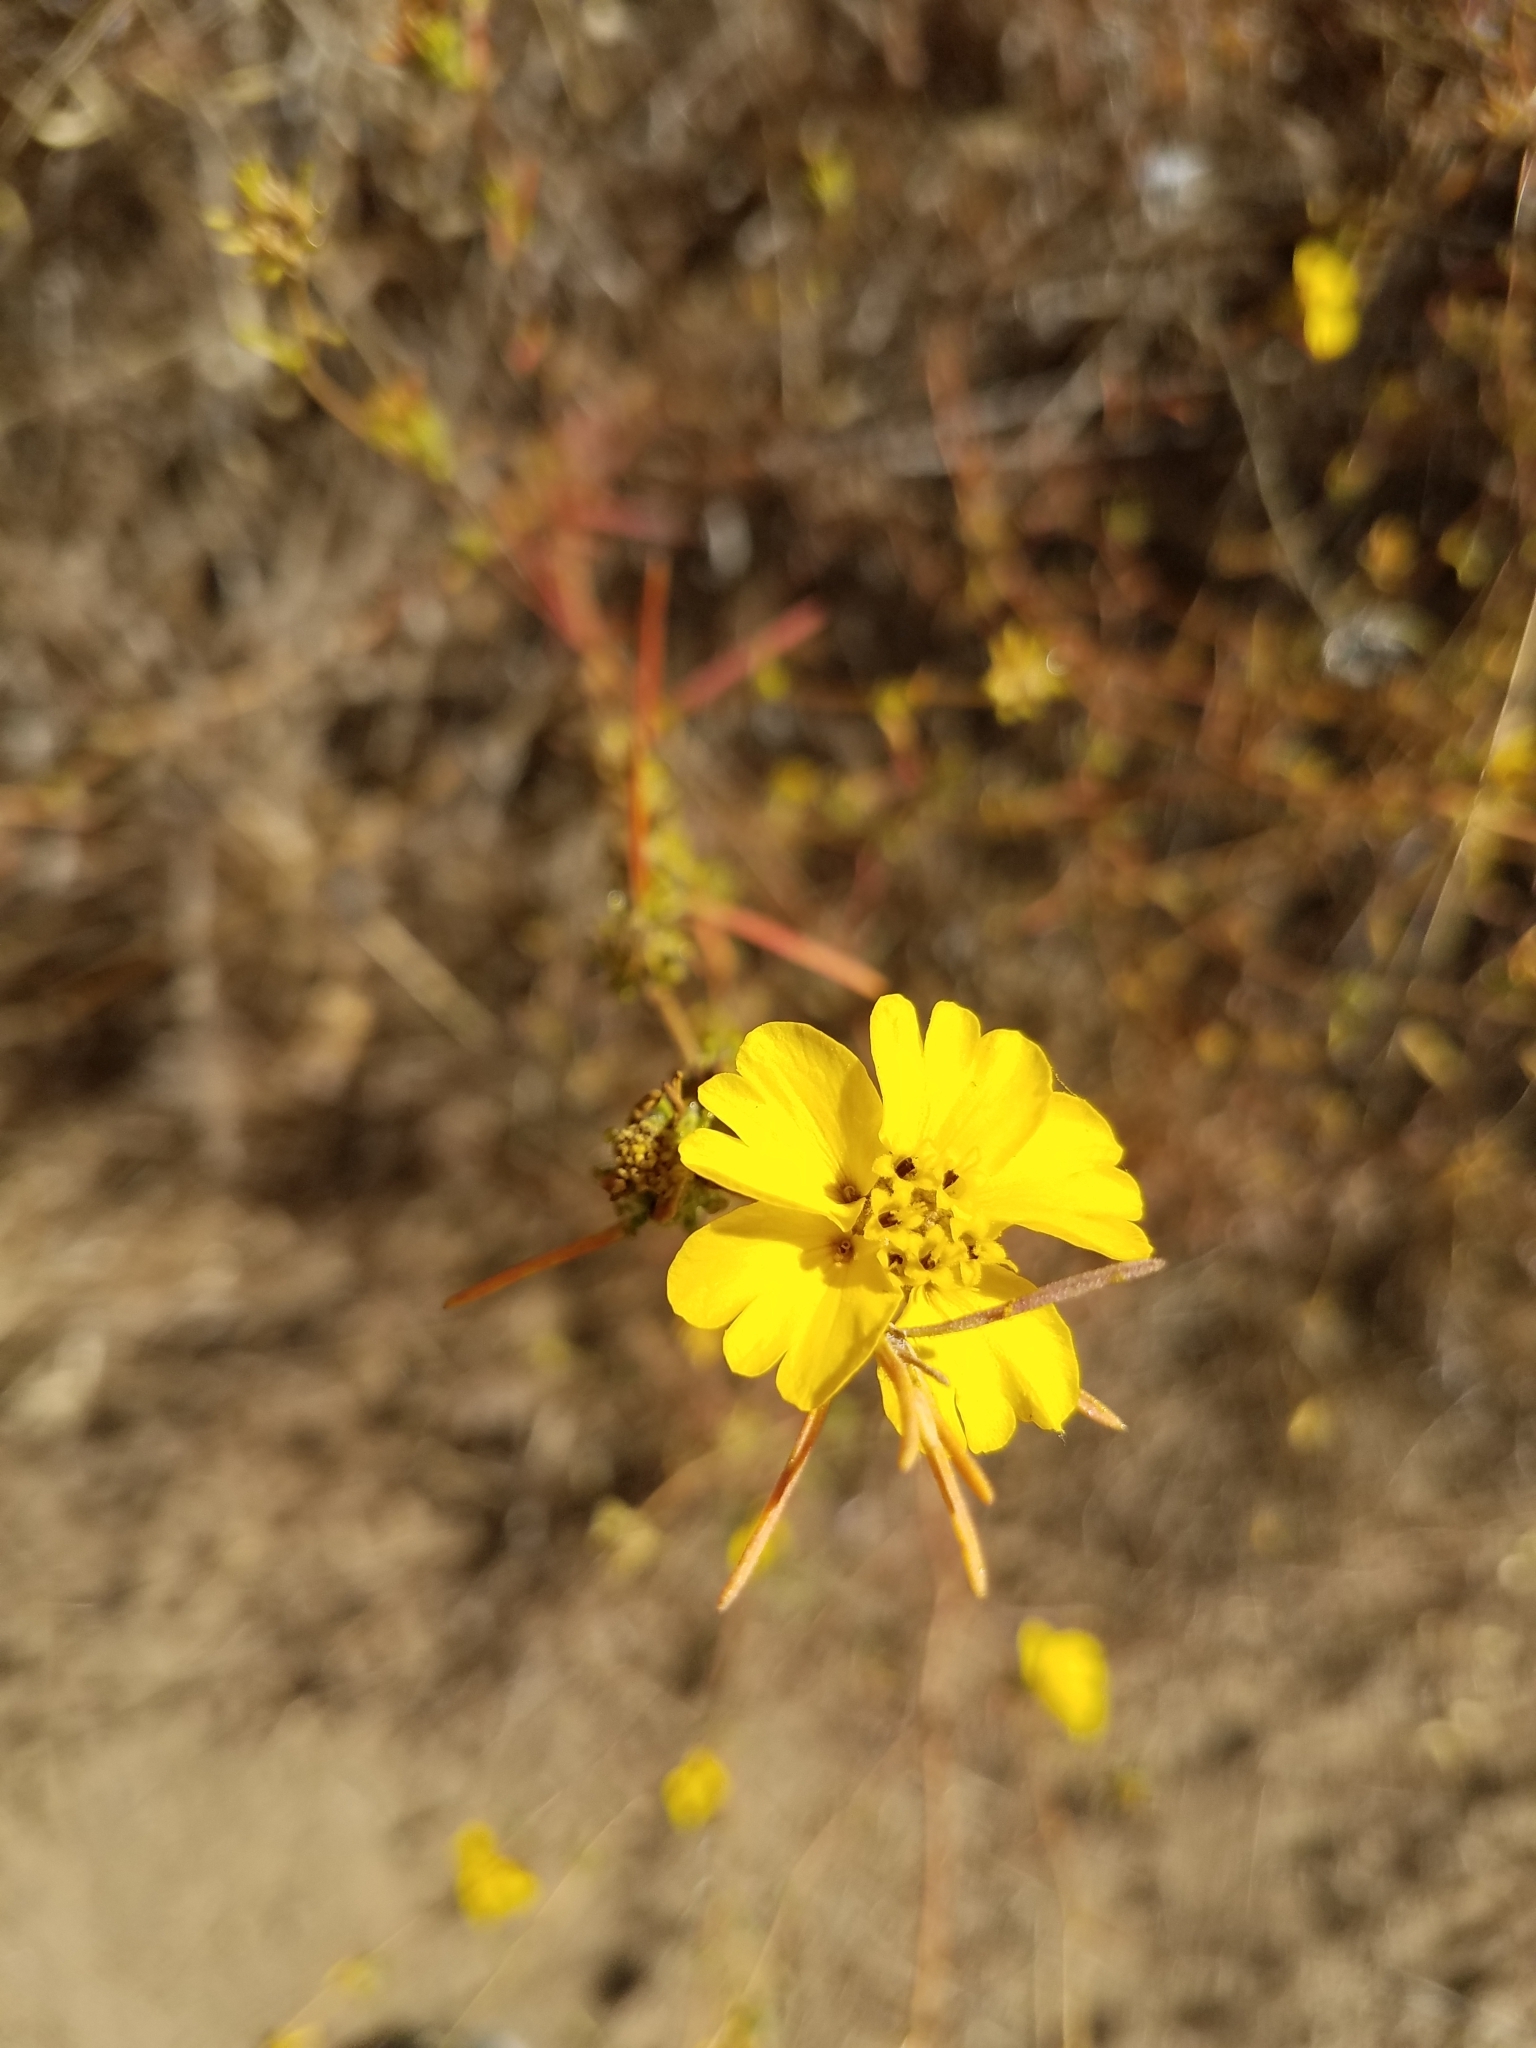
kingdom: Plantae
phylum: Tracheophyta
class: Magnoliopsida
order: Asterales
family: Asteraceae
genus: Calycadenia
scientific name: Calycadenia truncata
